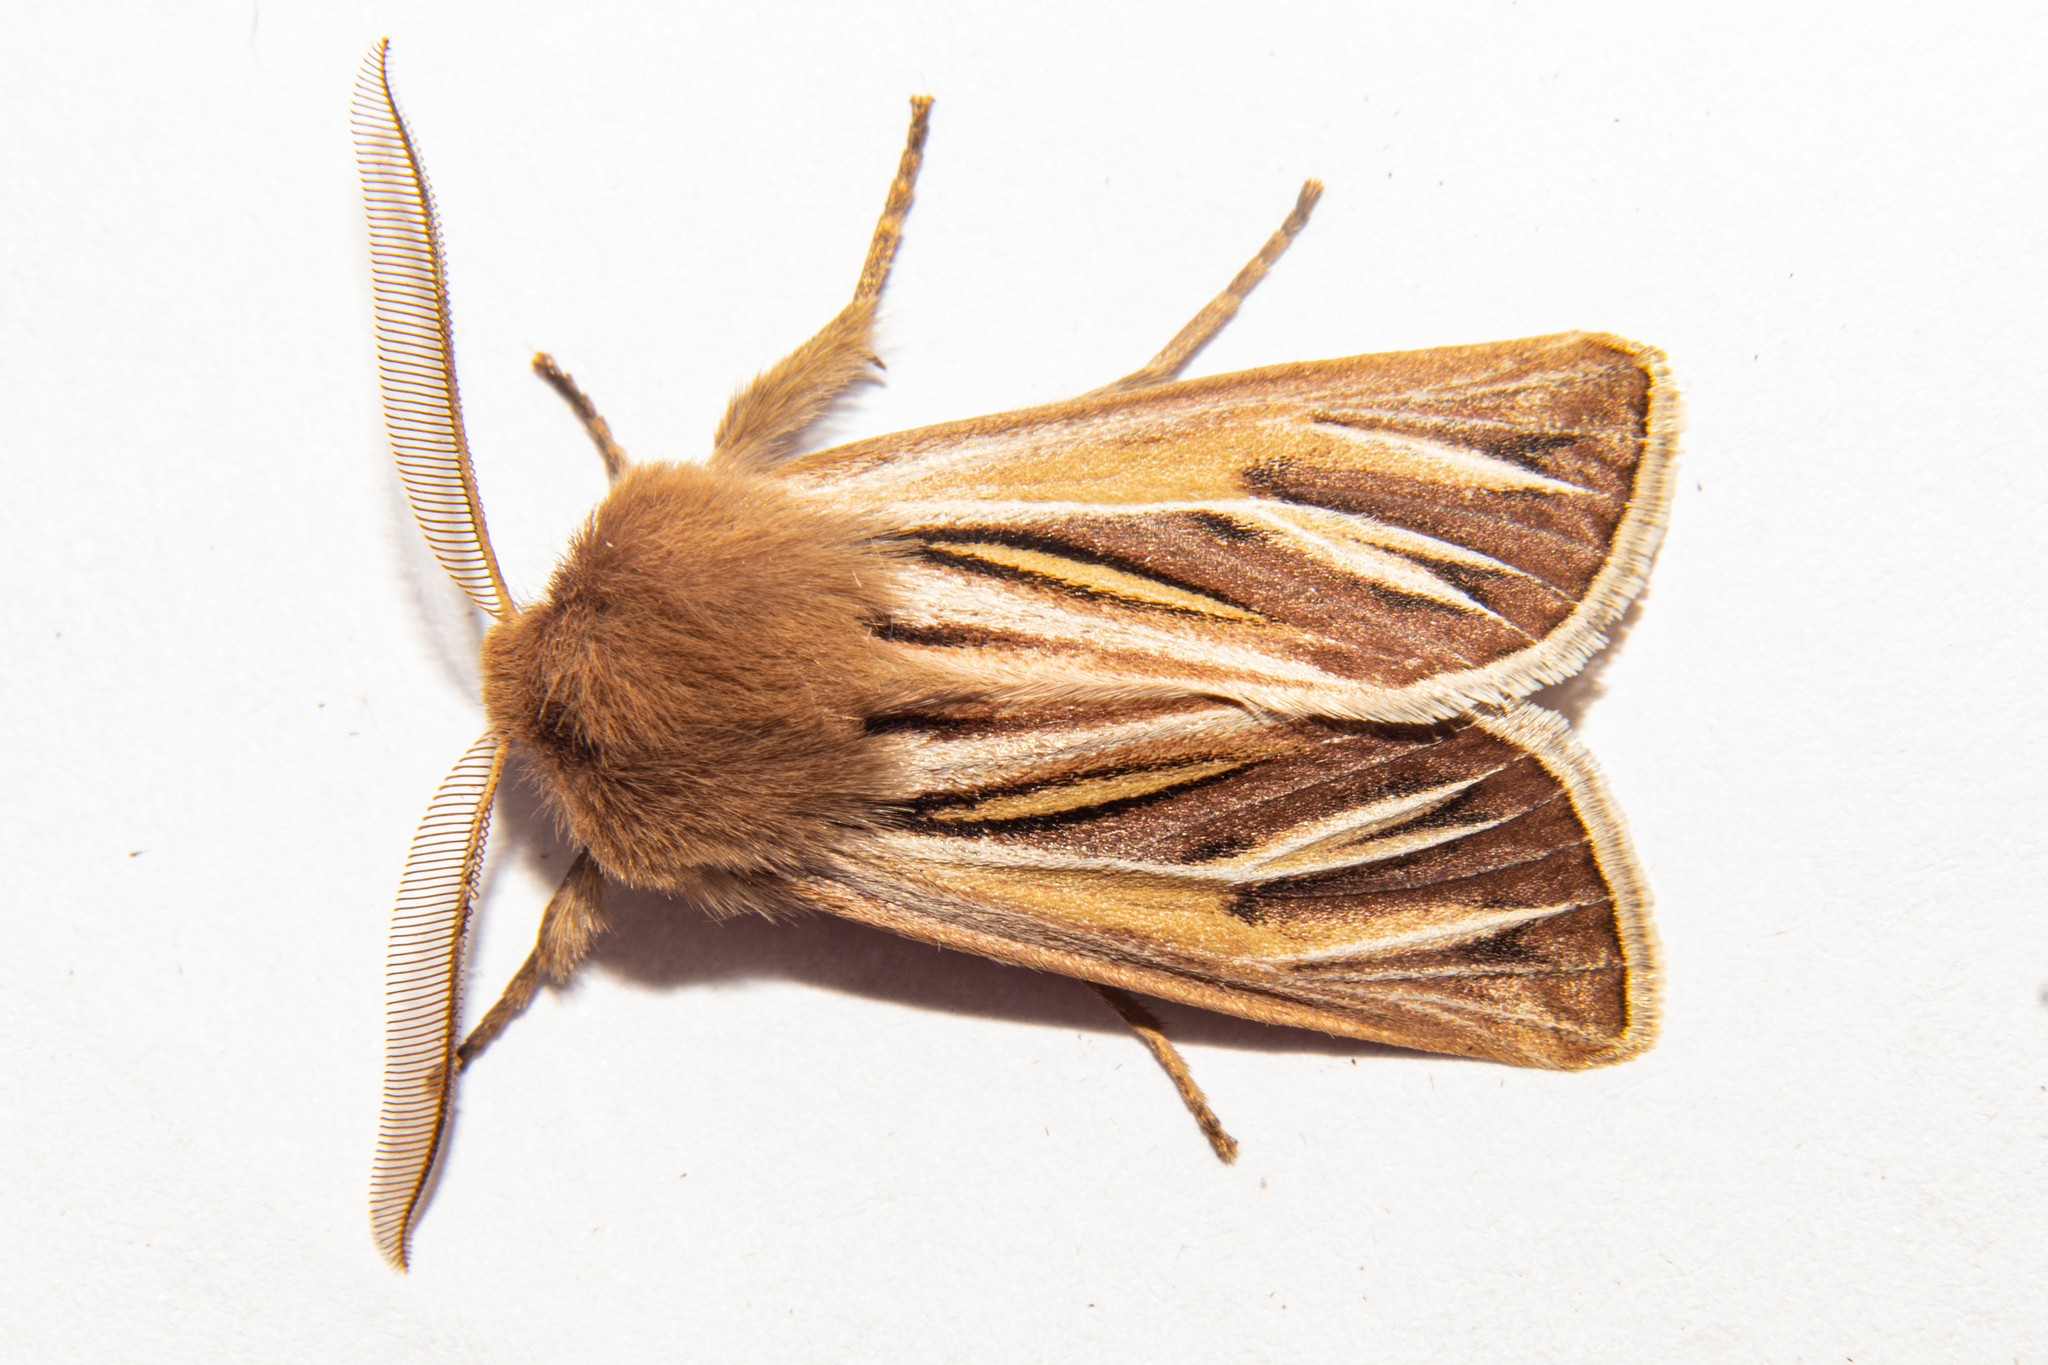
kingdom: Animalia
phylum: Arthropoda
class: Insecta
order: Lepidoptera
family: Noctuidae
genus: Ichneutica
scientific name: Ichneutica caraunias
